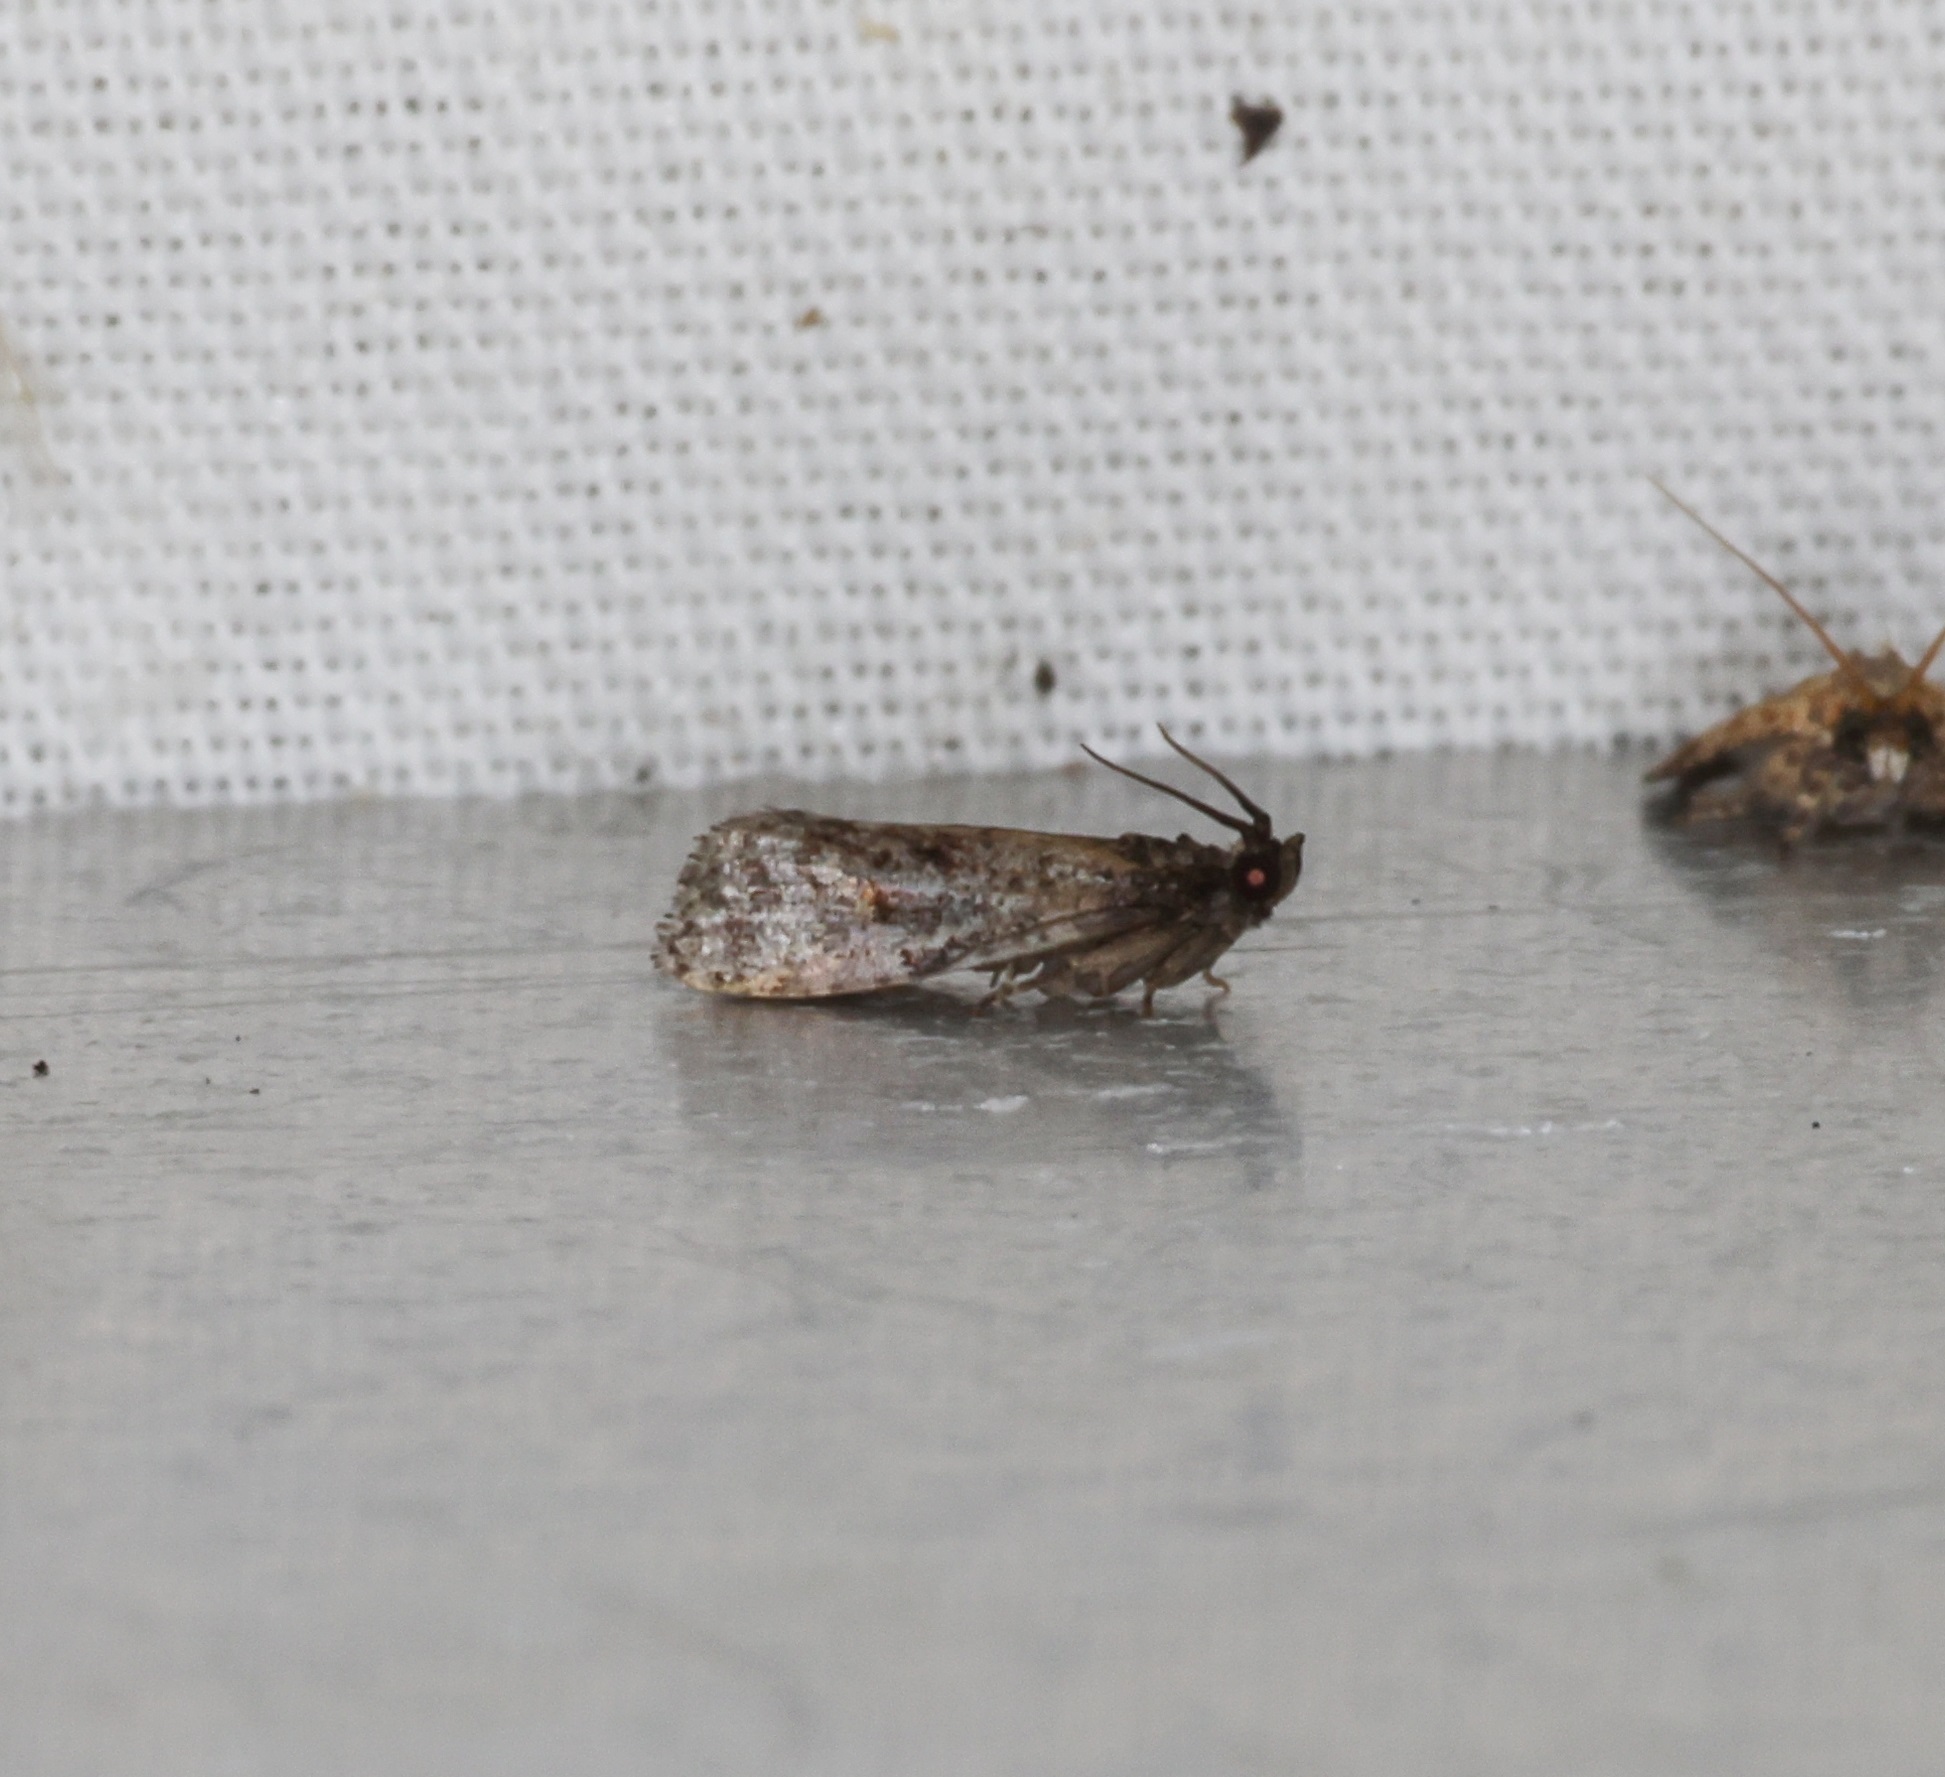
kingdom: Animalia
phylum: Arthropoda
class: Insecta
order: Lepidoptera
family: Tortricidae
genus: Cryptaspasma
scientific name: Cryptaspasma helota
